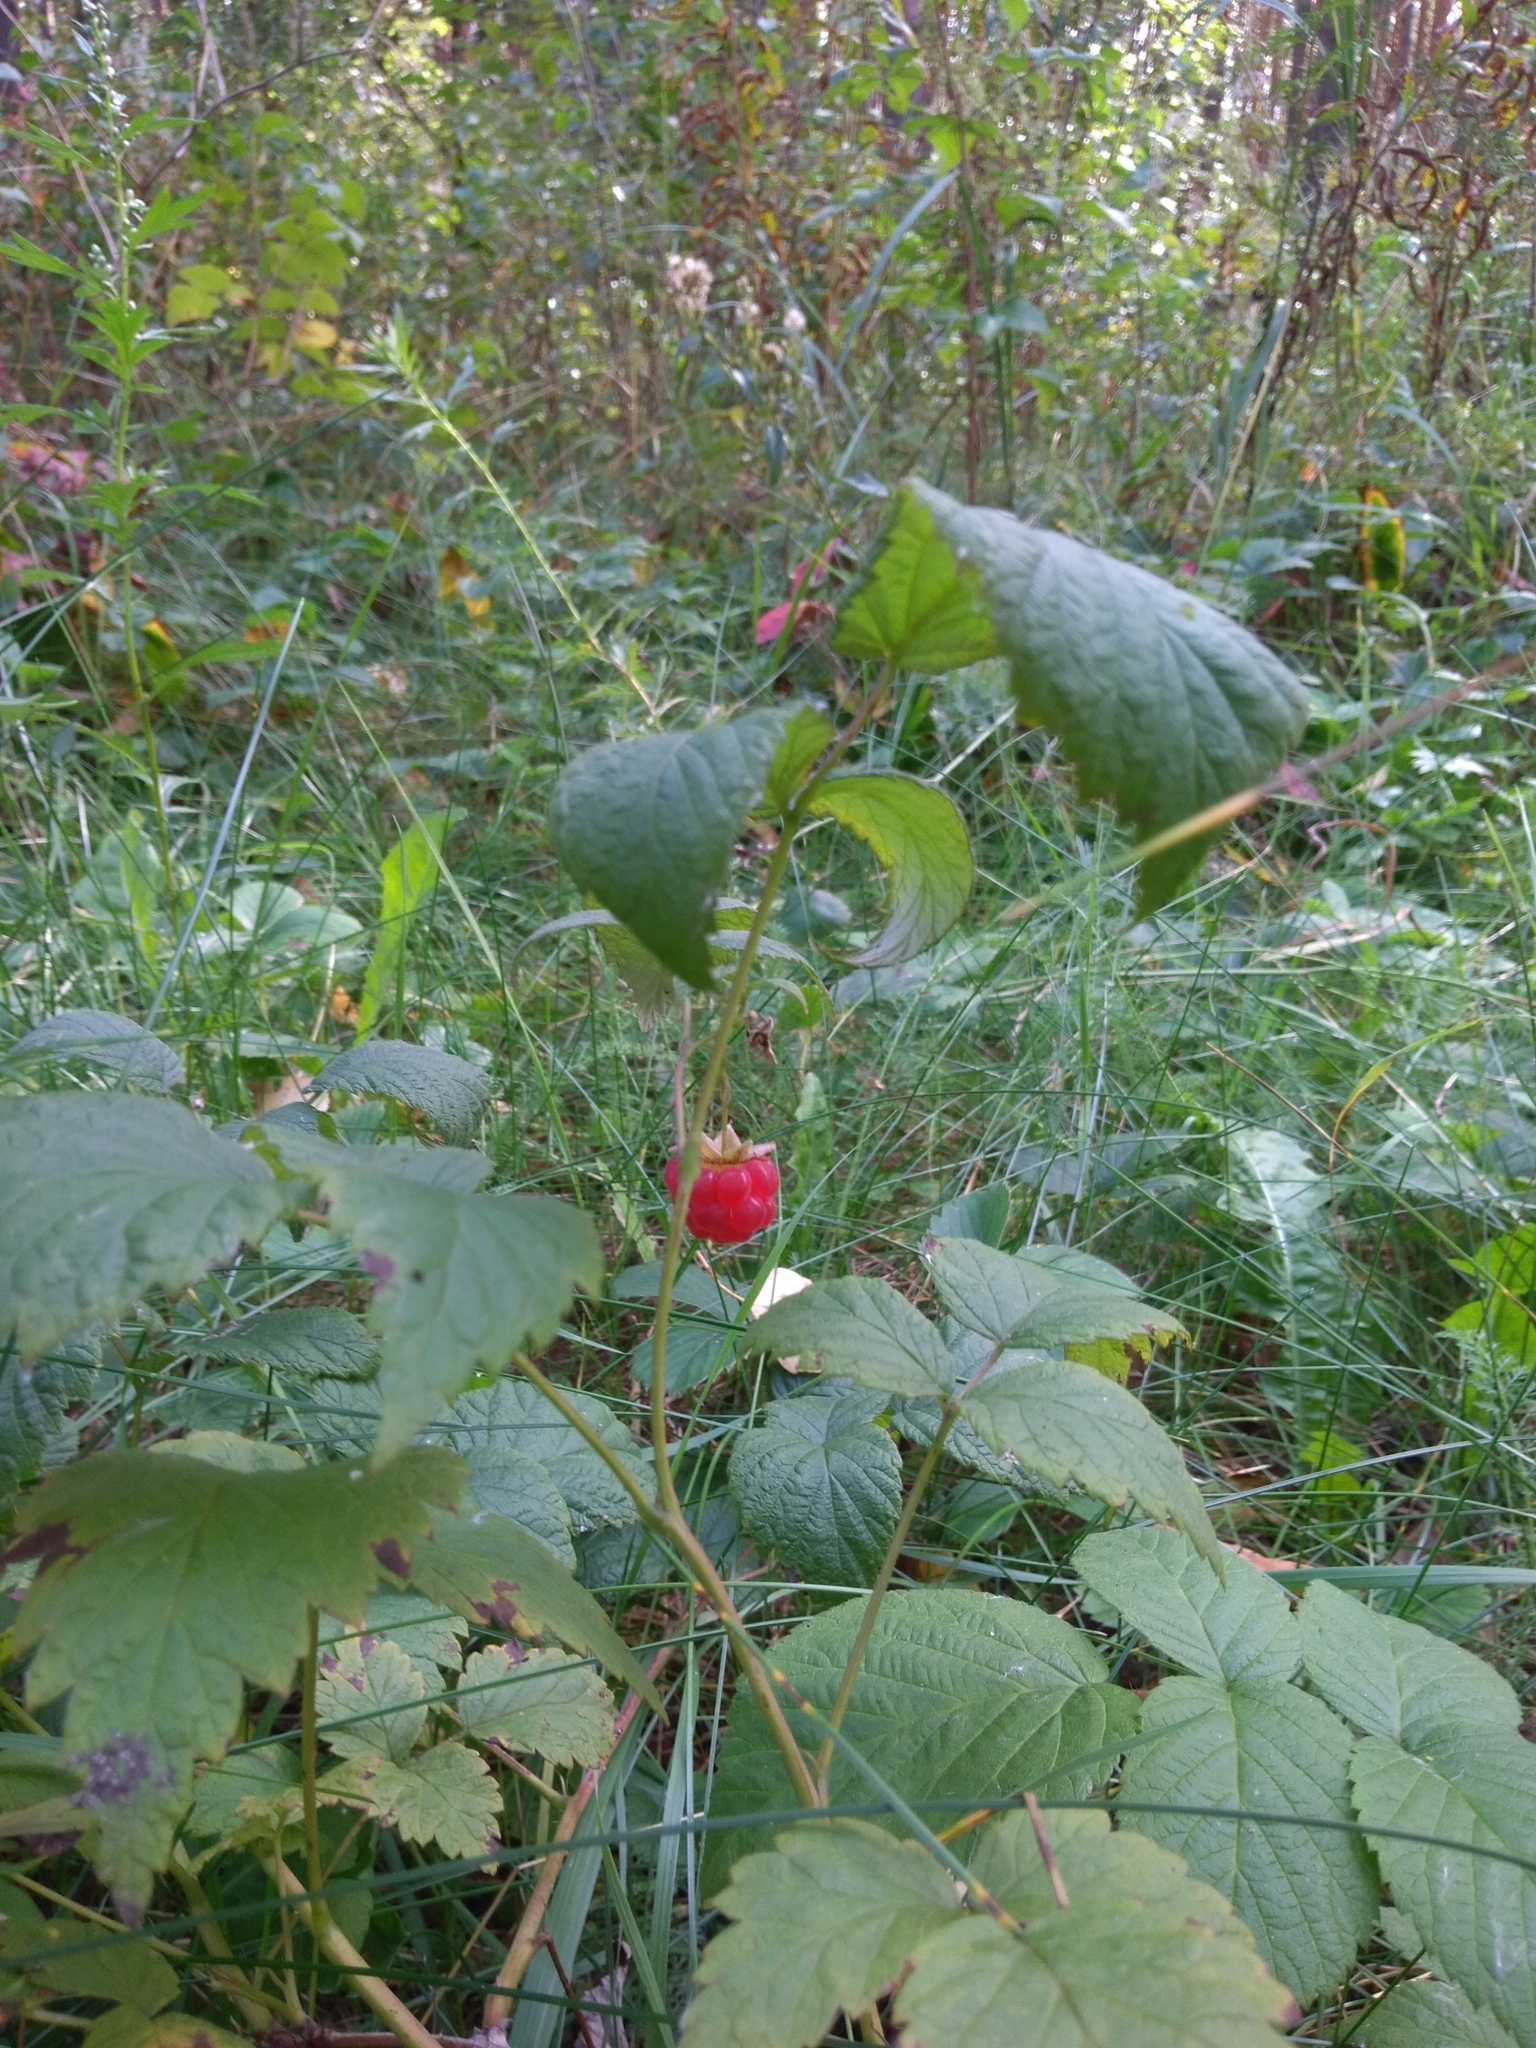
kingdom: Plantae
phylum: Tracheophyta
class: Magnoliopsida
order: Rosales
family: Rosaceae
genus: Rubus
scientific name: Rubus idaeus
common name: Raspberry
